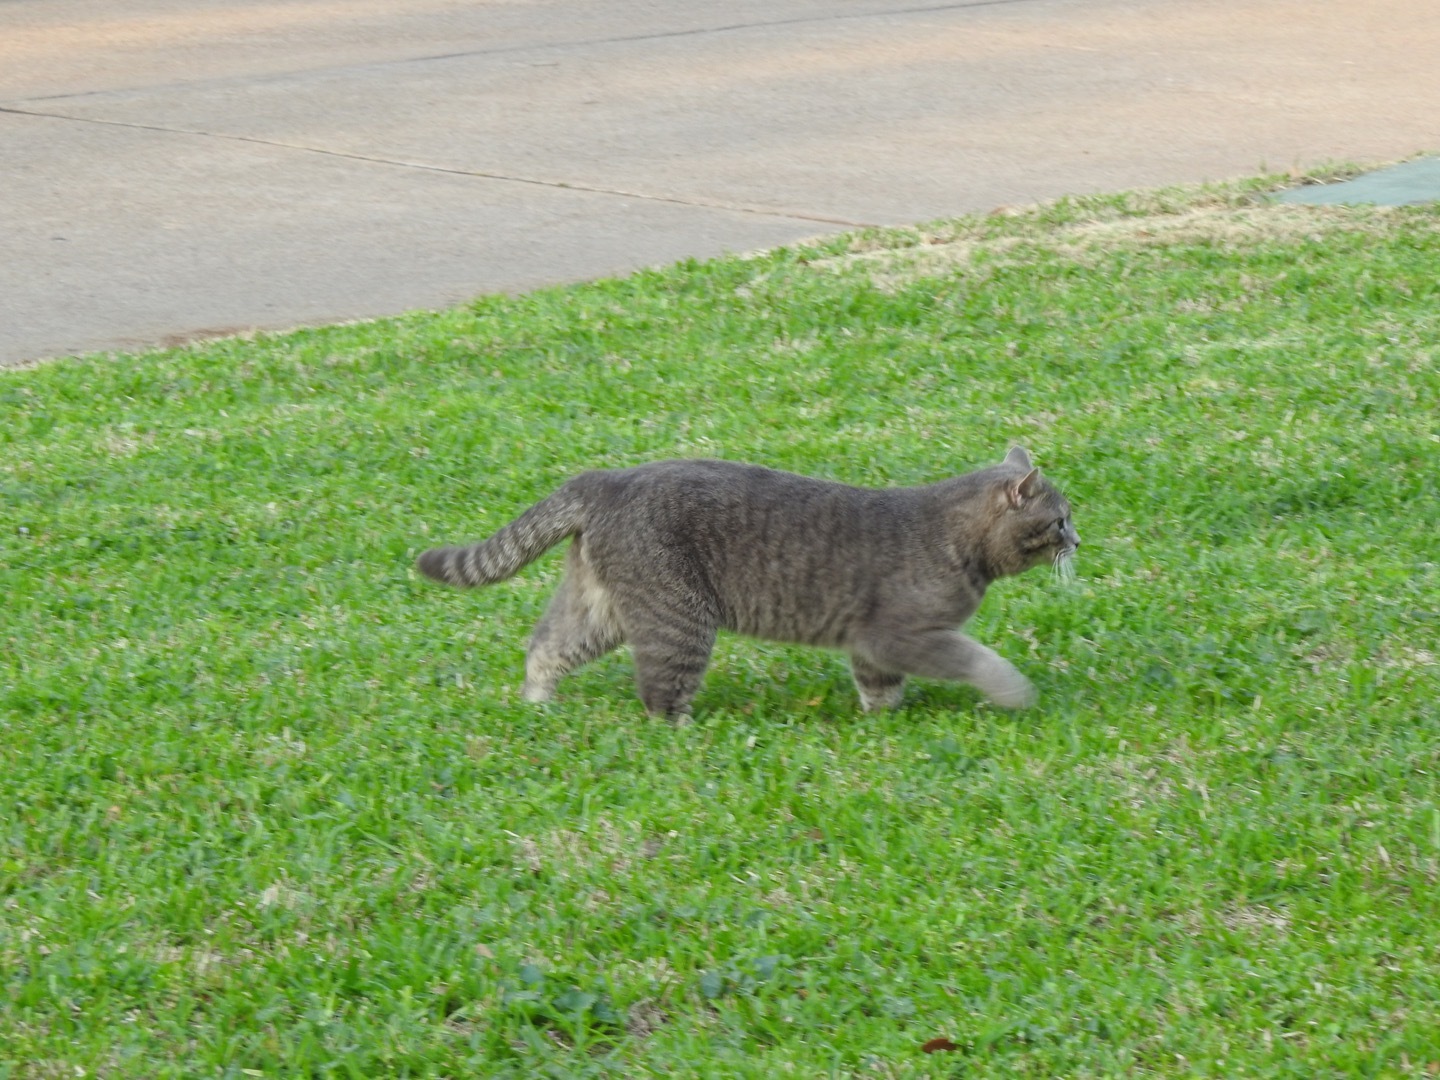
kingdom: Animalia
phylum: Chordata
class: Mammalia
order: Carnivora
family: Felidae
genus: Felis
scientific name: Felis catus
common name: Domestic cat
